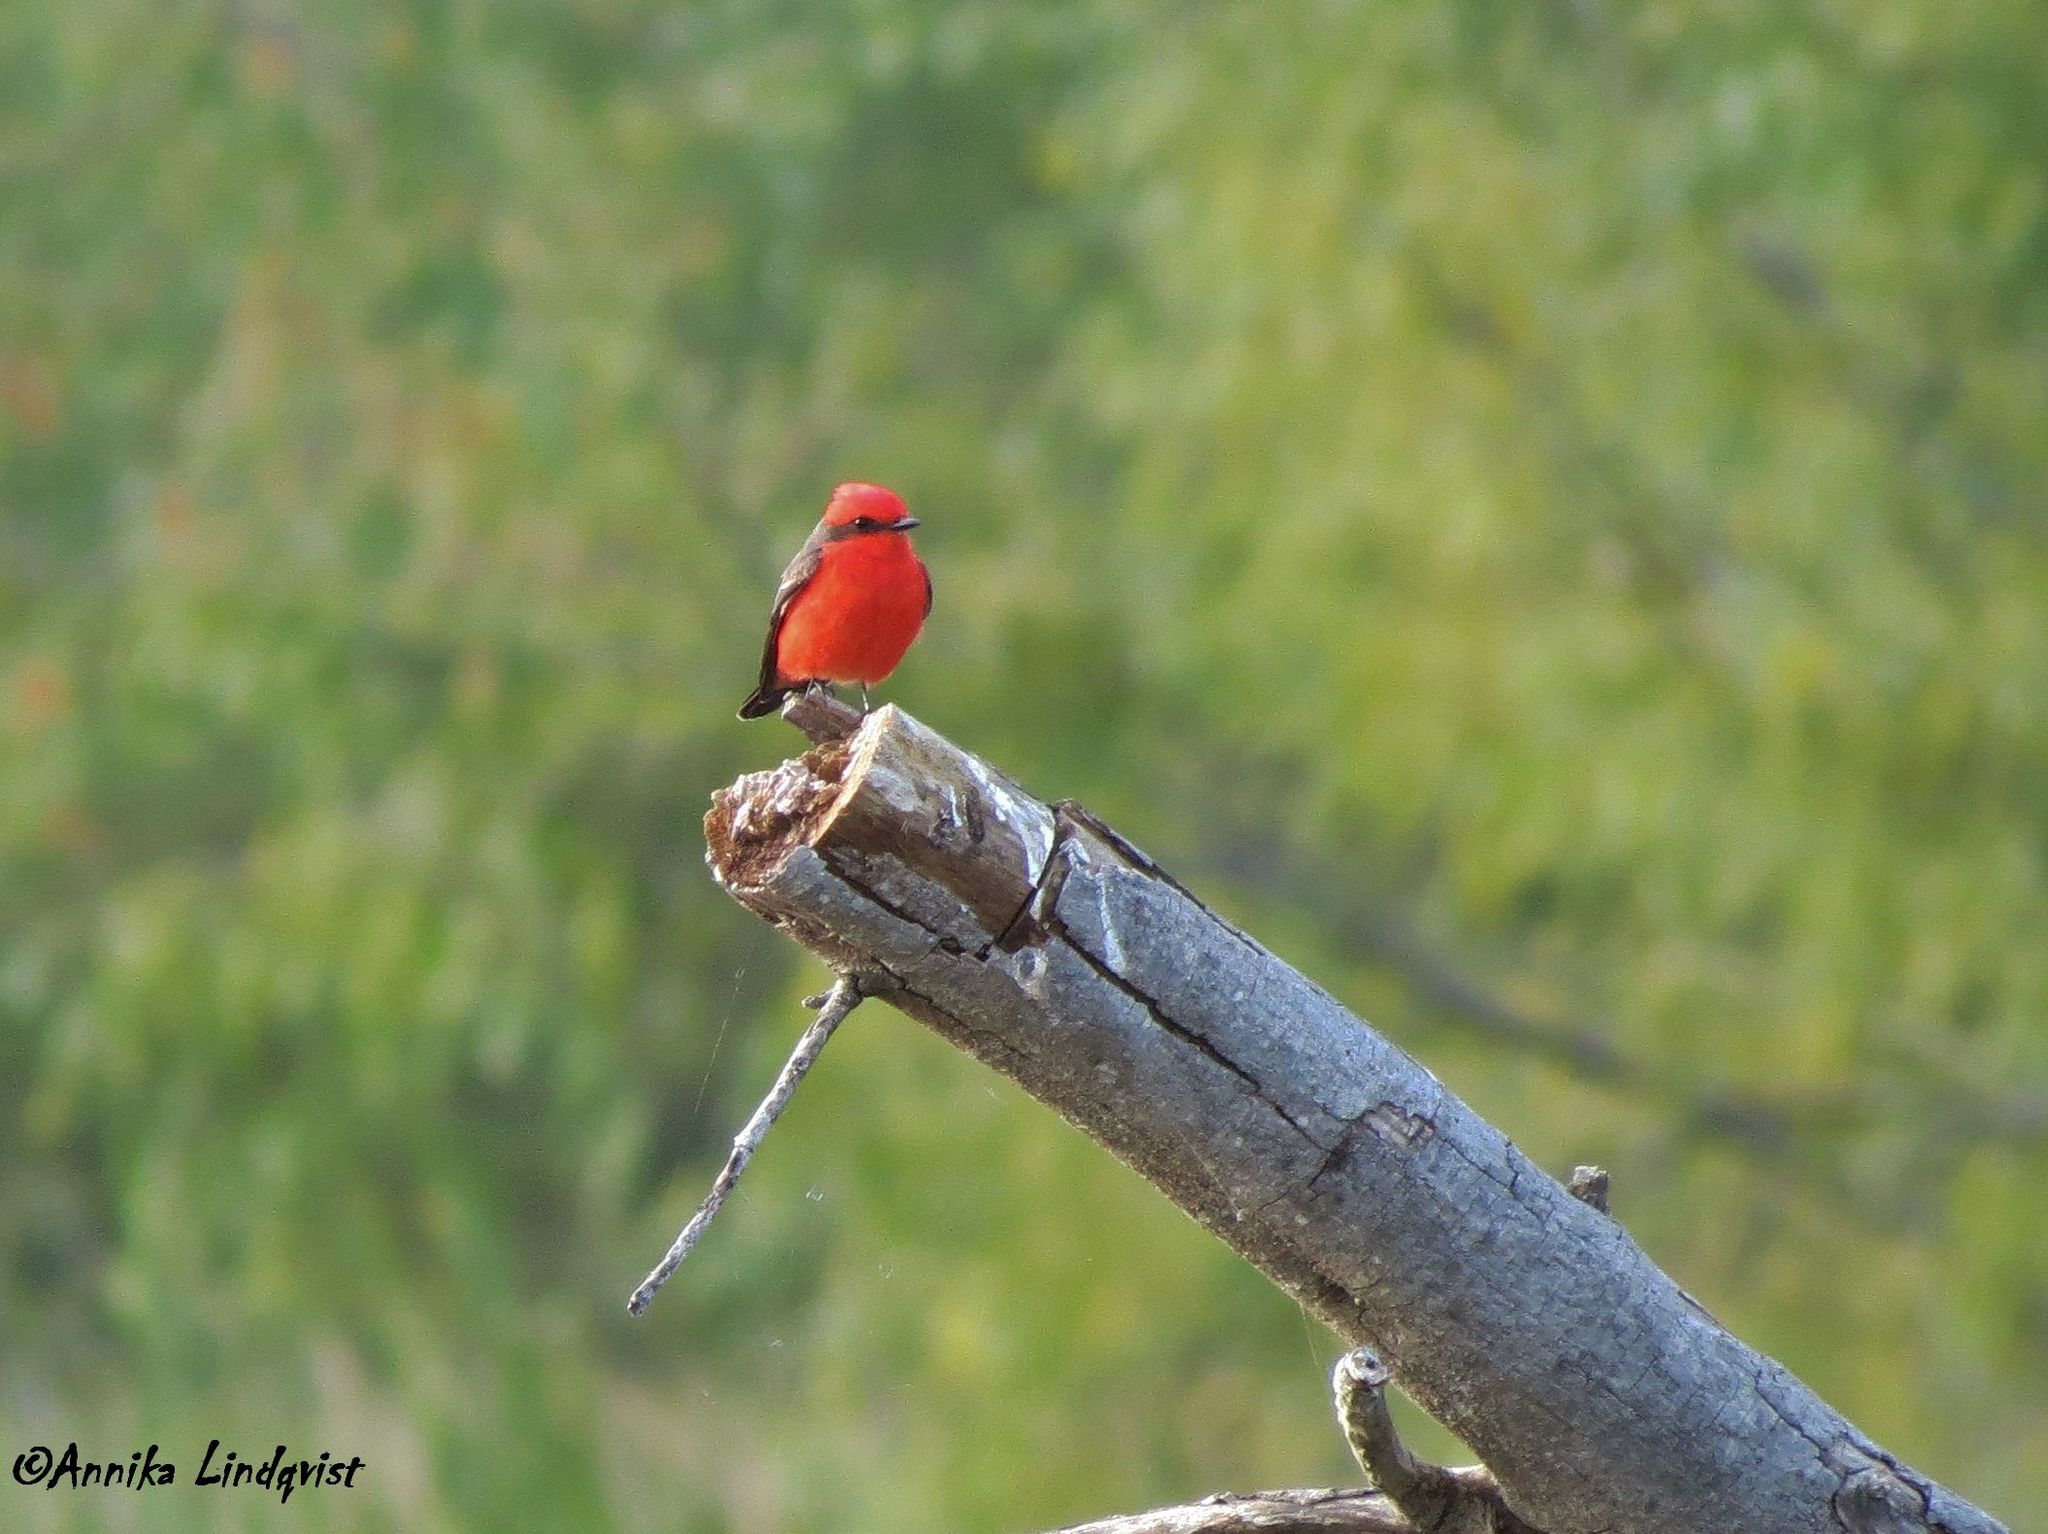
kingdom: Animalia
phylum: Chordata
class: Aves
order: Passeriformes
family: Tyrannidae
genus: Pyrocephalus
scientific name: Pyrocephalus rubinus
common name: Vermilion flycatcher
